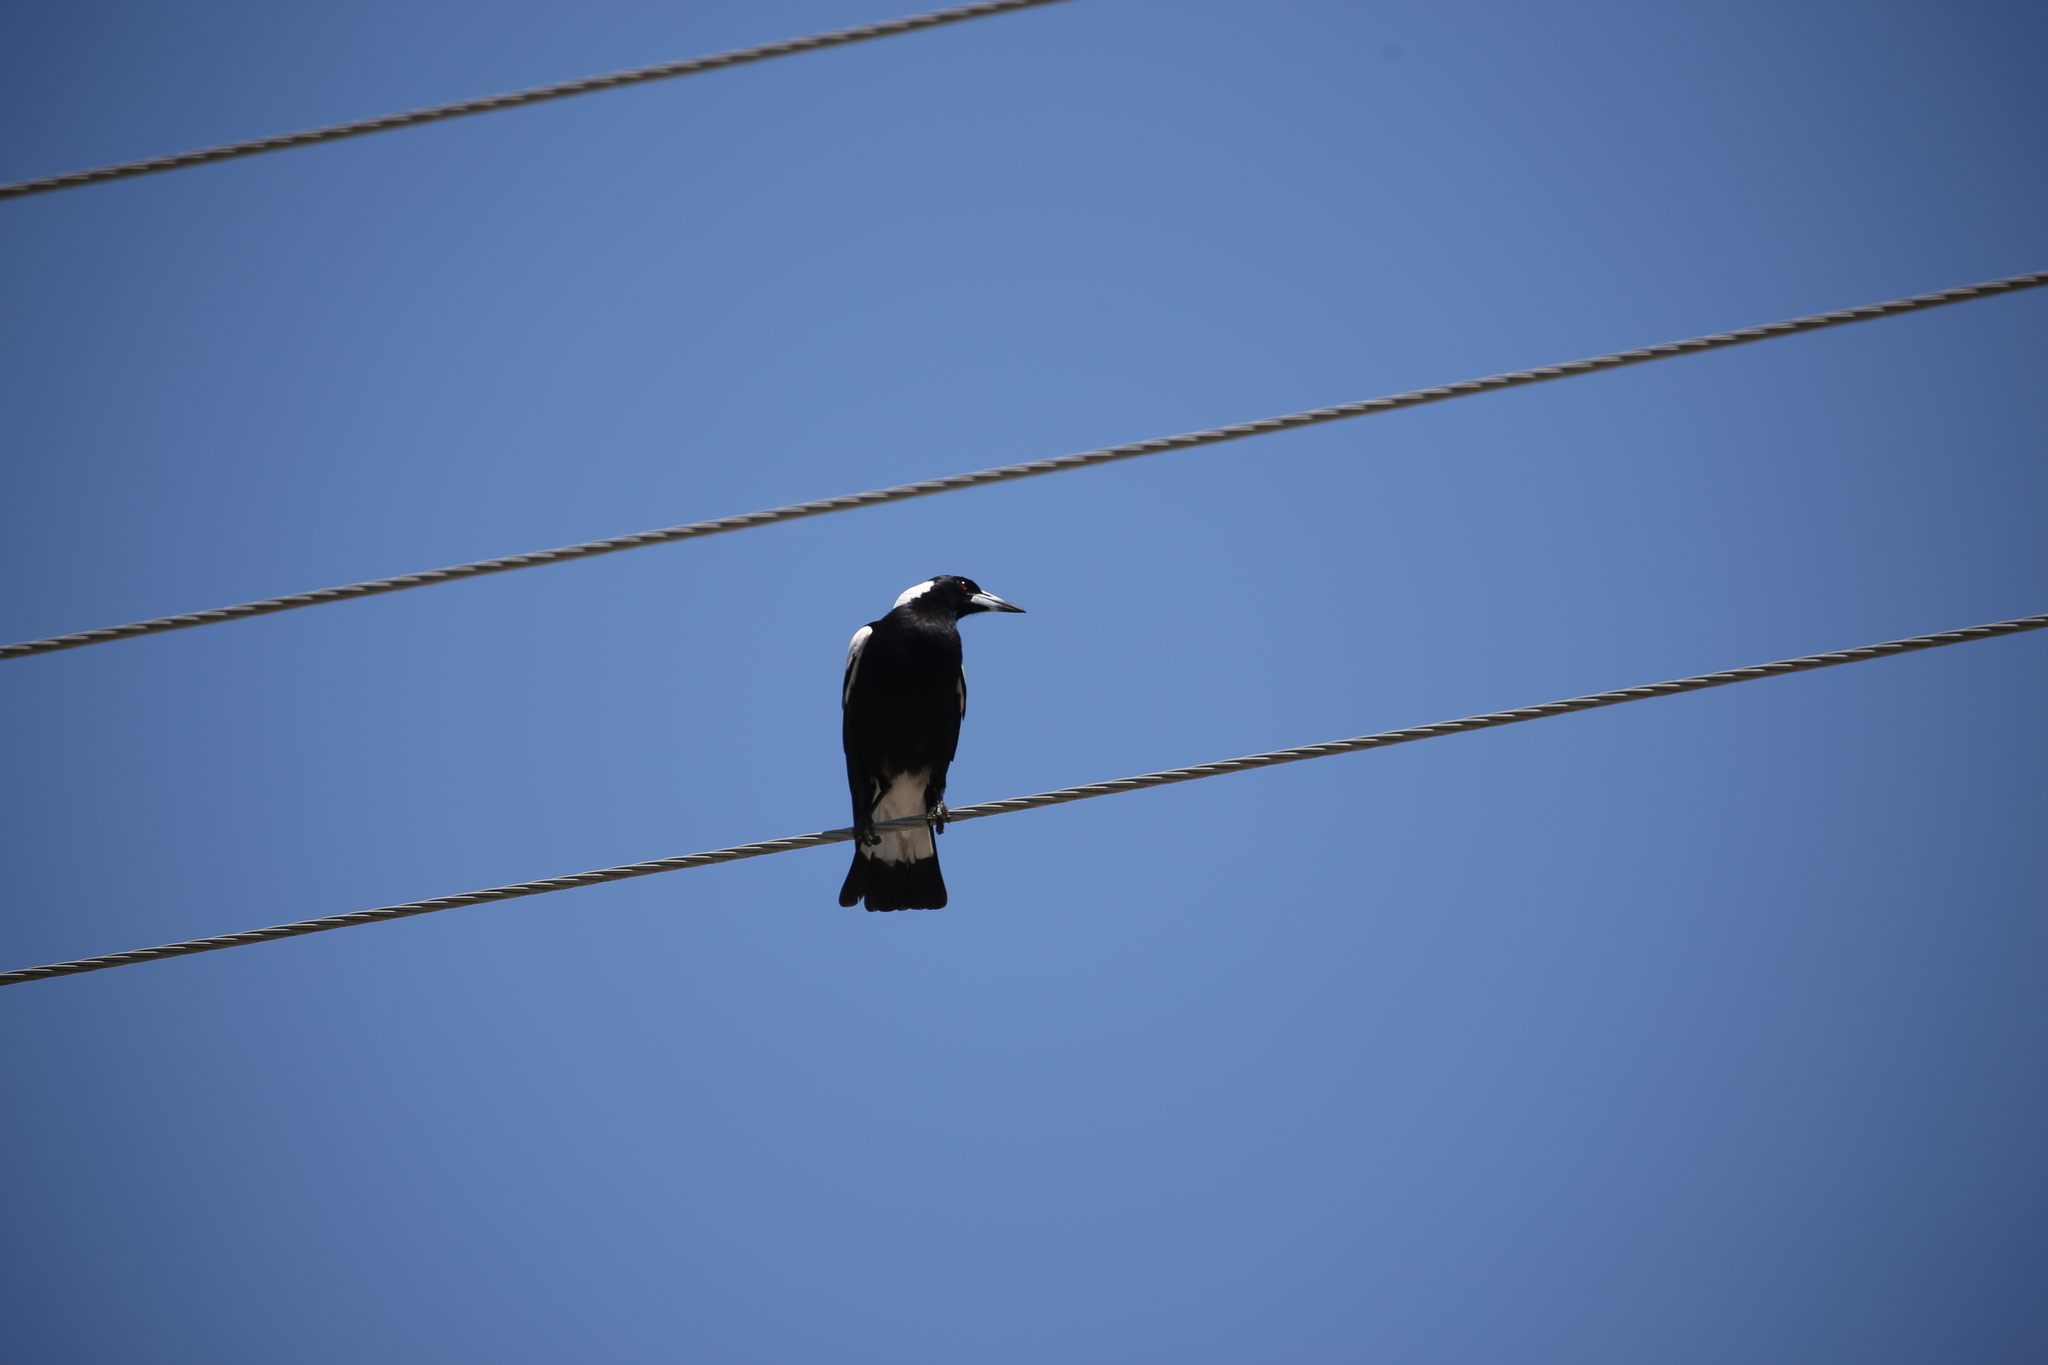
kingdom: Animalia
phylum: Chordata
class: Aves
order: Passeriformes
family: Cracticidae
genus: Gymnorhina
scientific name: Gymnorhina tibicen
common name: Australian magpie
